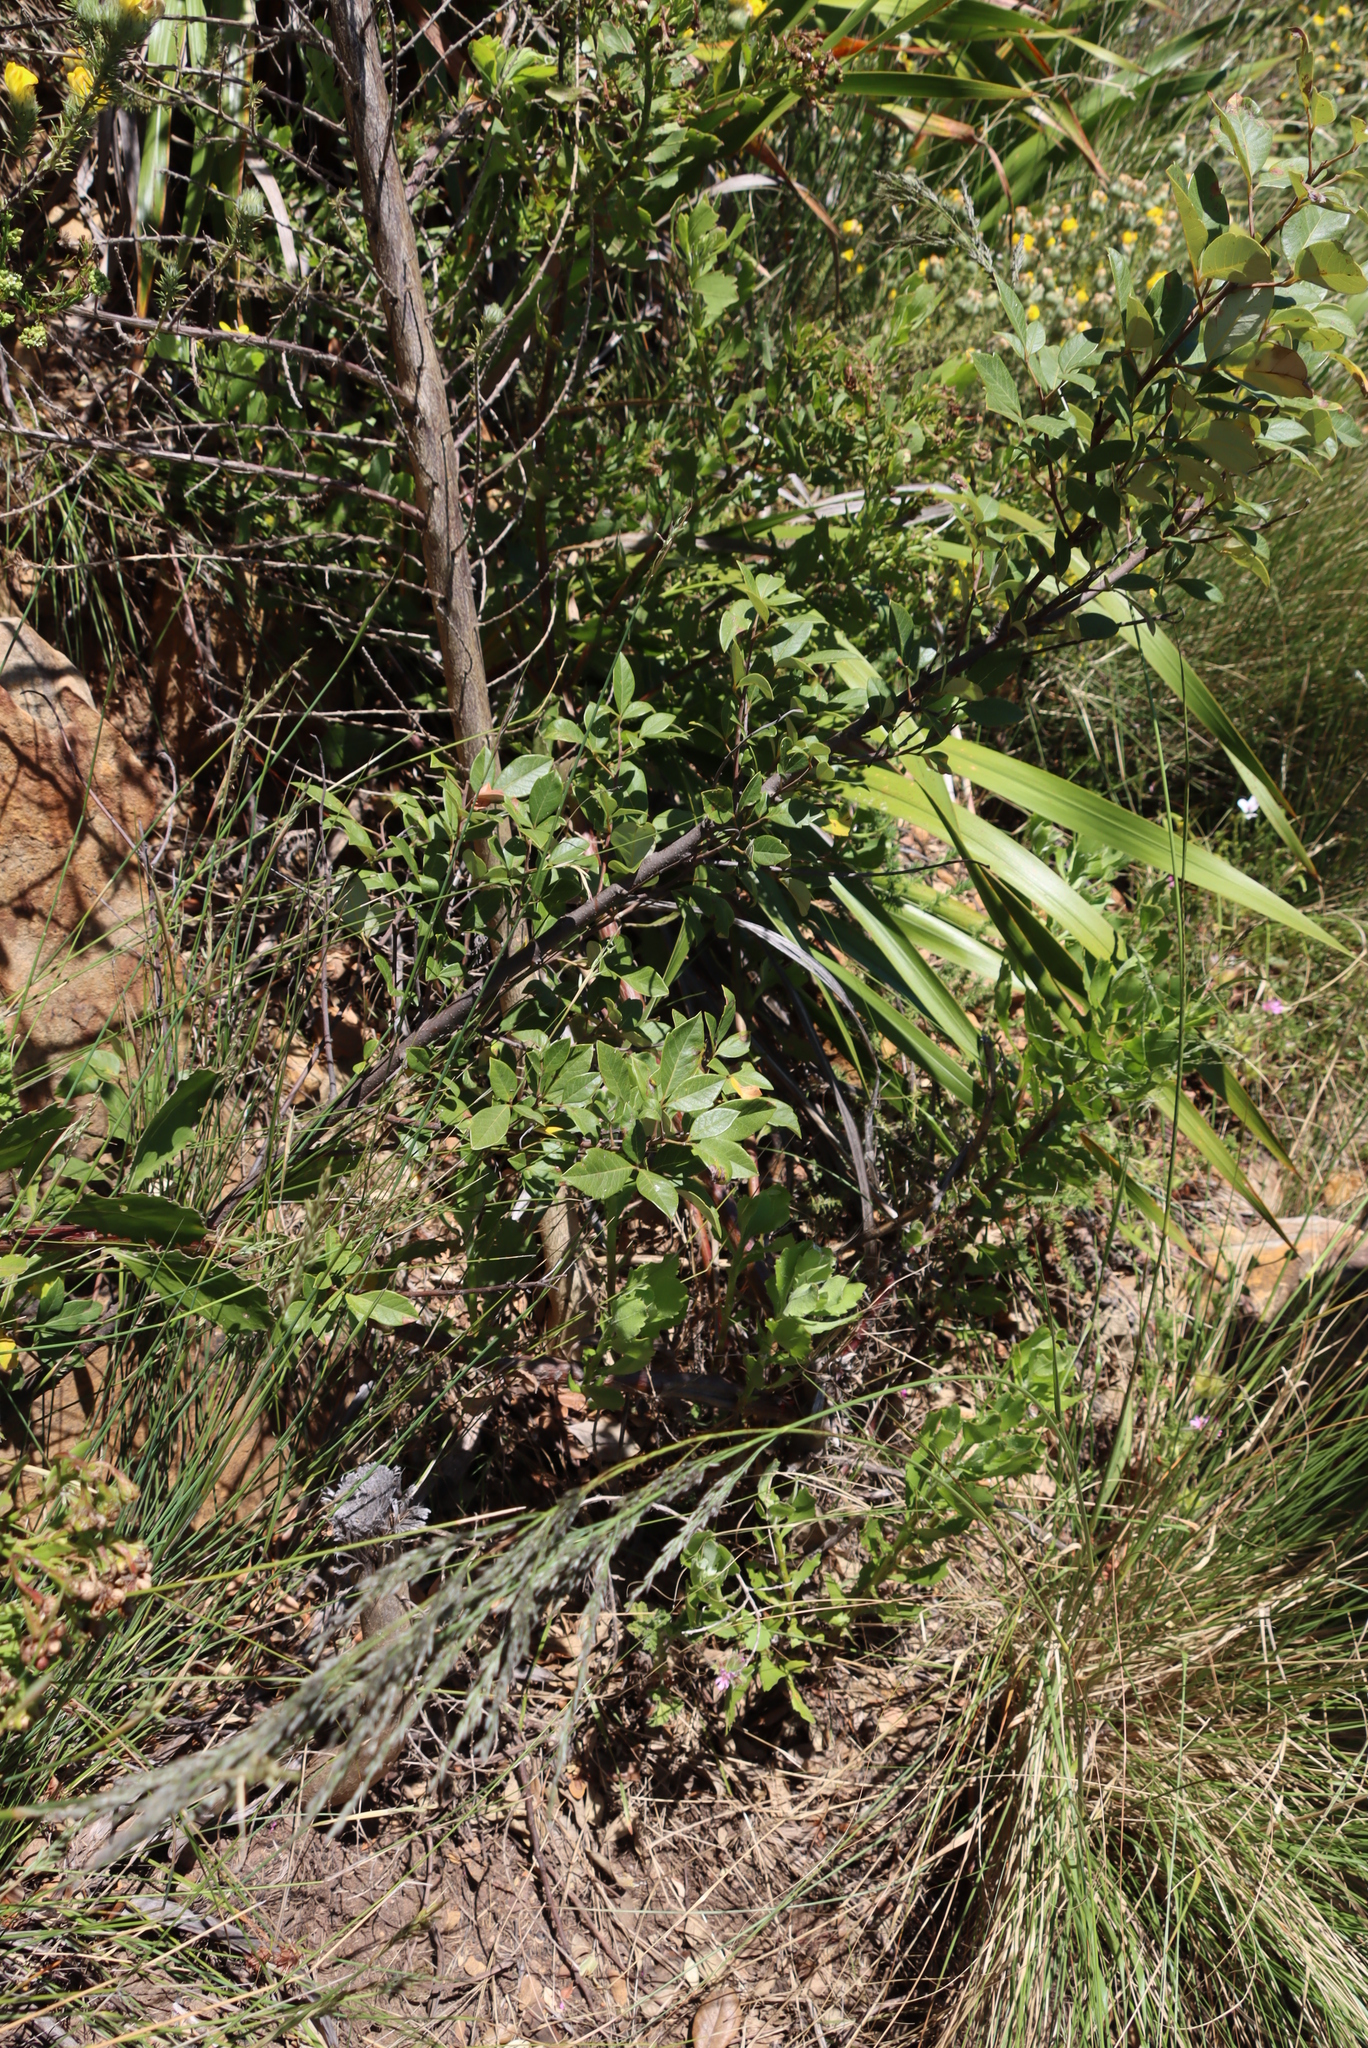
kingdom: Plantae
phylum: Tracheophyta
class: Magnoliopsida
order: Sapindales
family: Anacardiaceae
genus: Searsia
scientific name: Searsia tomentosa
